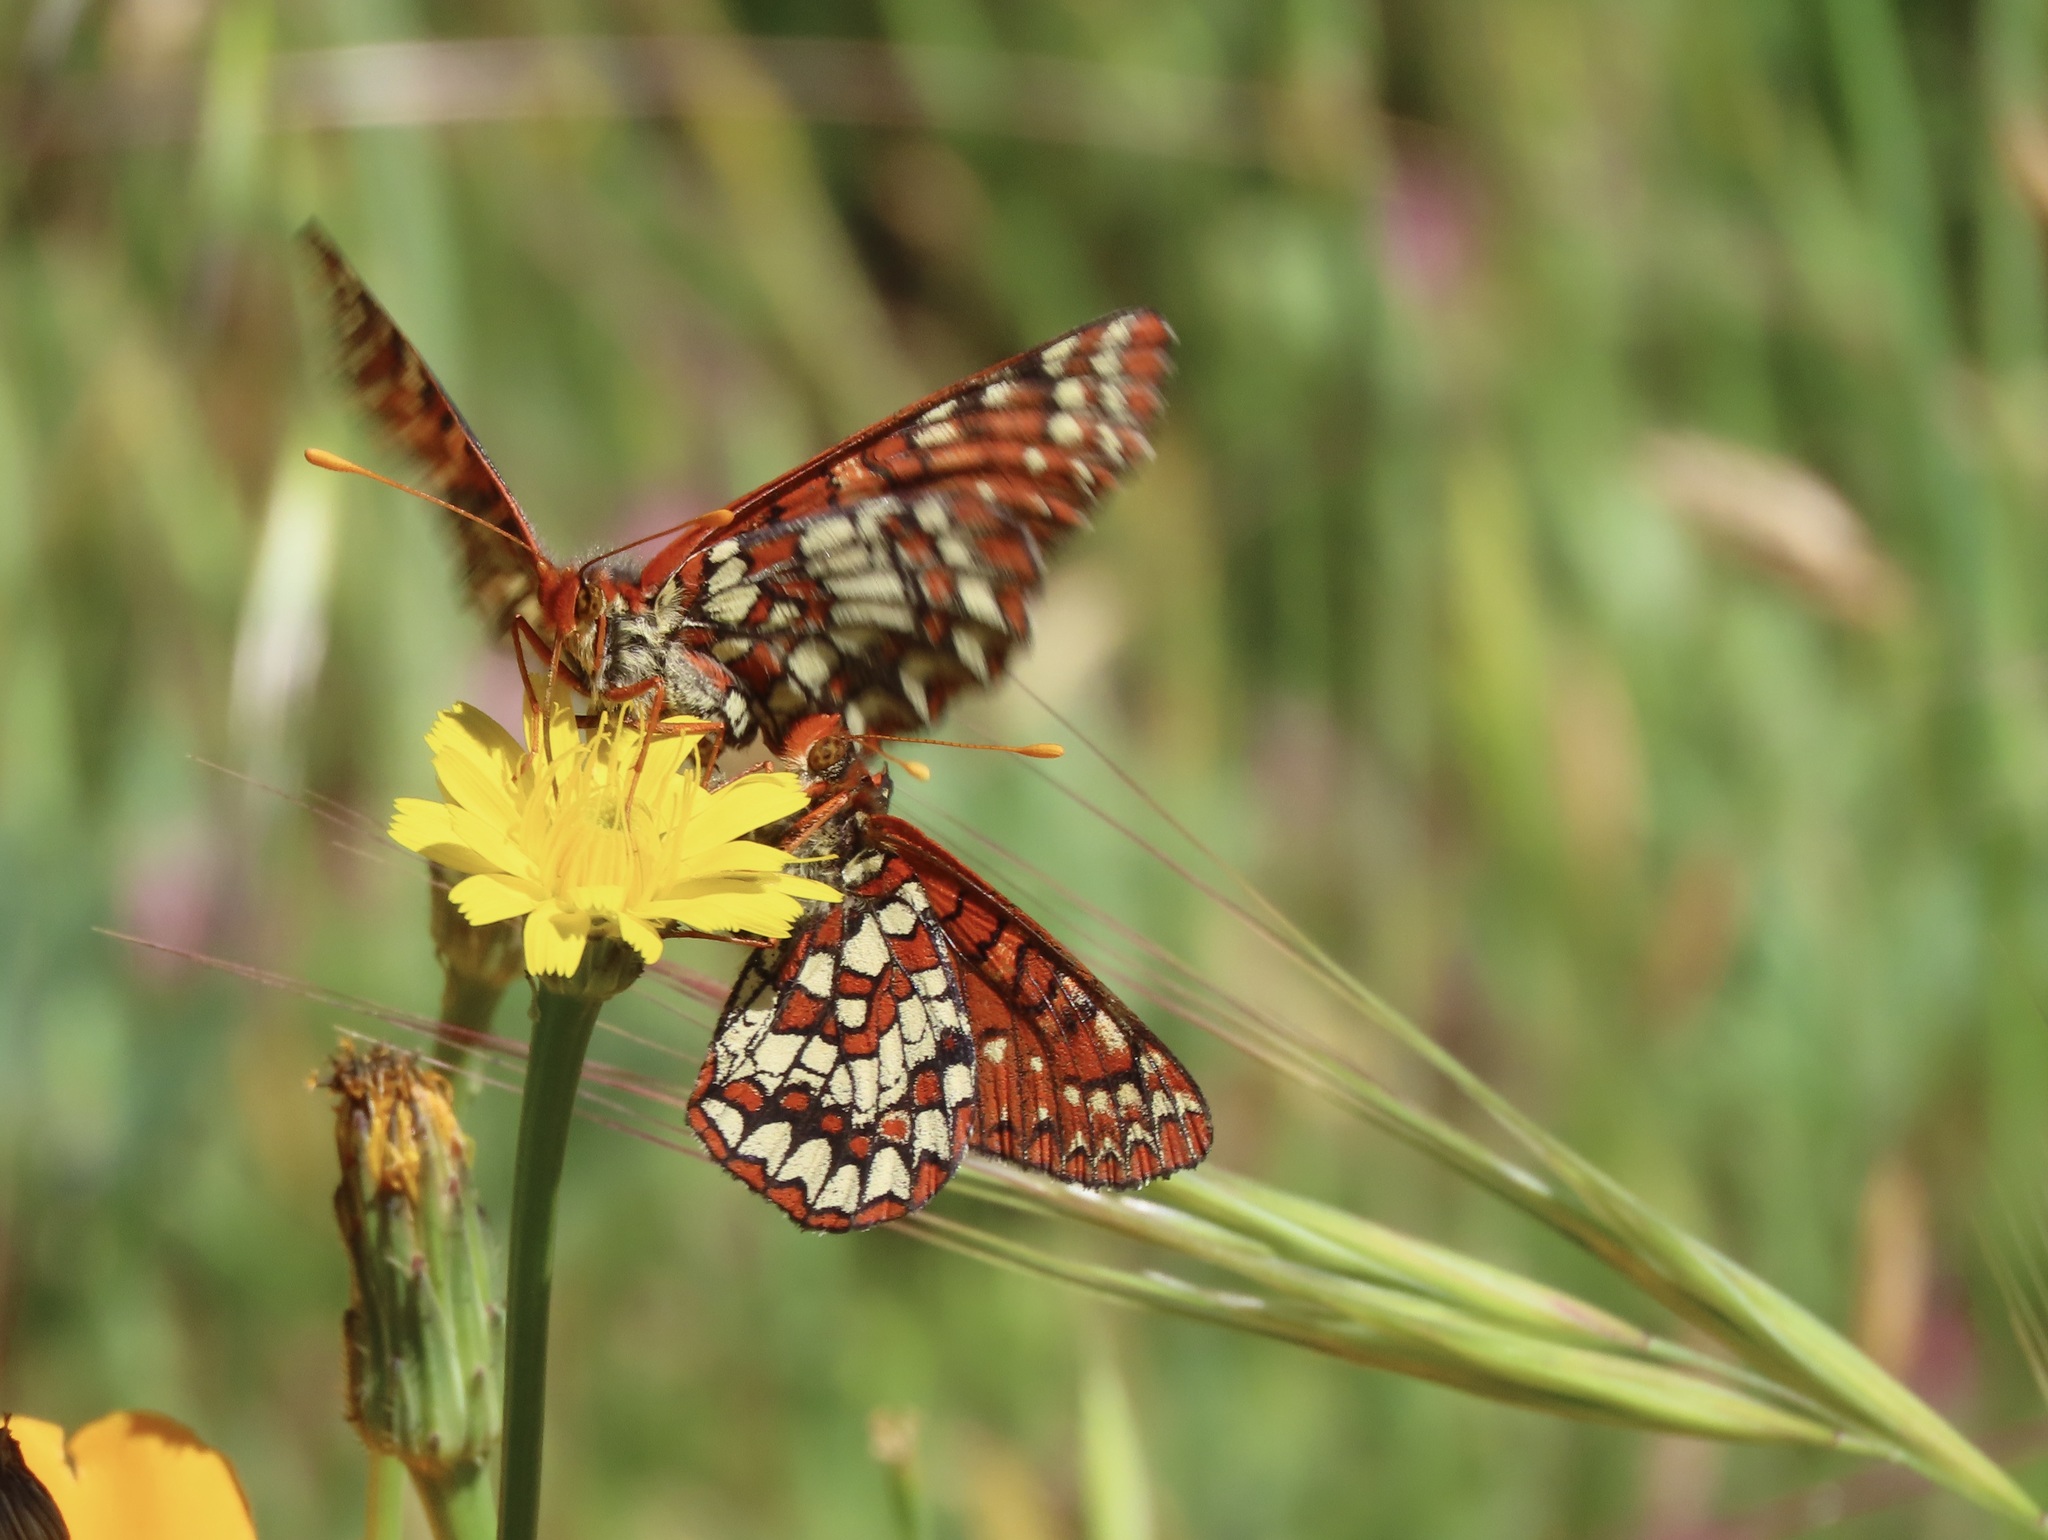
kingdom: Animalia
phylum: Arthropoda
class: Insecta
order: Lepidoptera
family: Nymphalidae
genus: Occidryas
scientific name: Occidryas chalcedona
